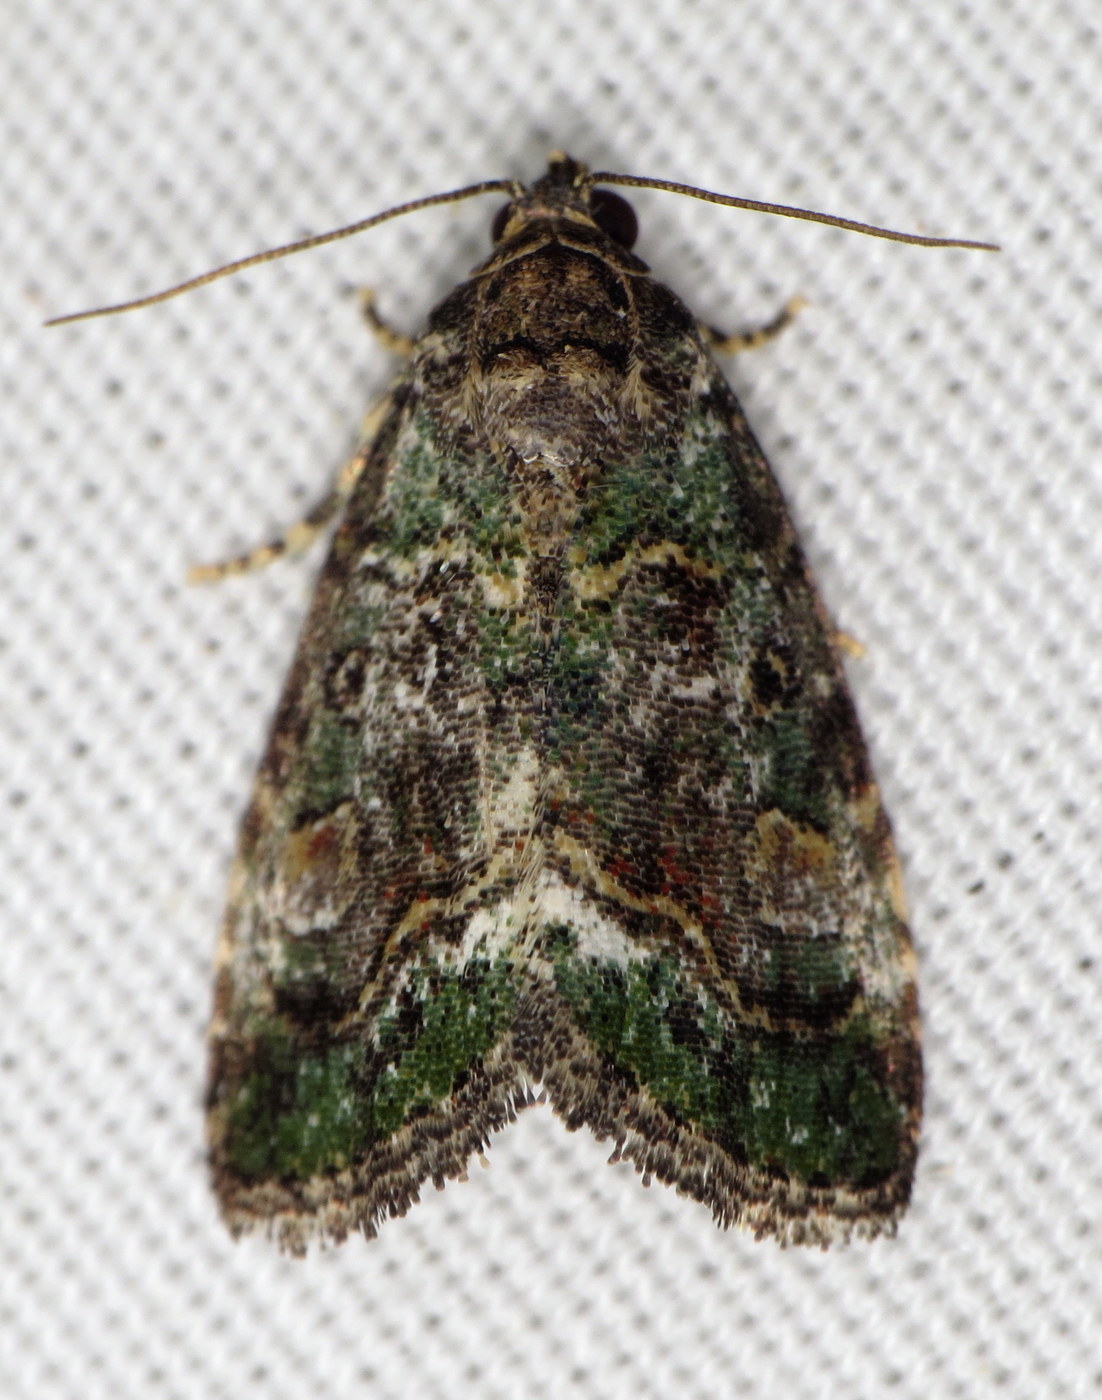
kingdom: Animalia
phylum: Arthropoda
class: Insecta
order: Lepidoptera
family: Noctuidae
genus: Lithacodia
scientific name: Lithacodia musta
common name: Small mossy glyph
